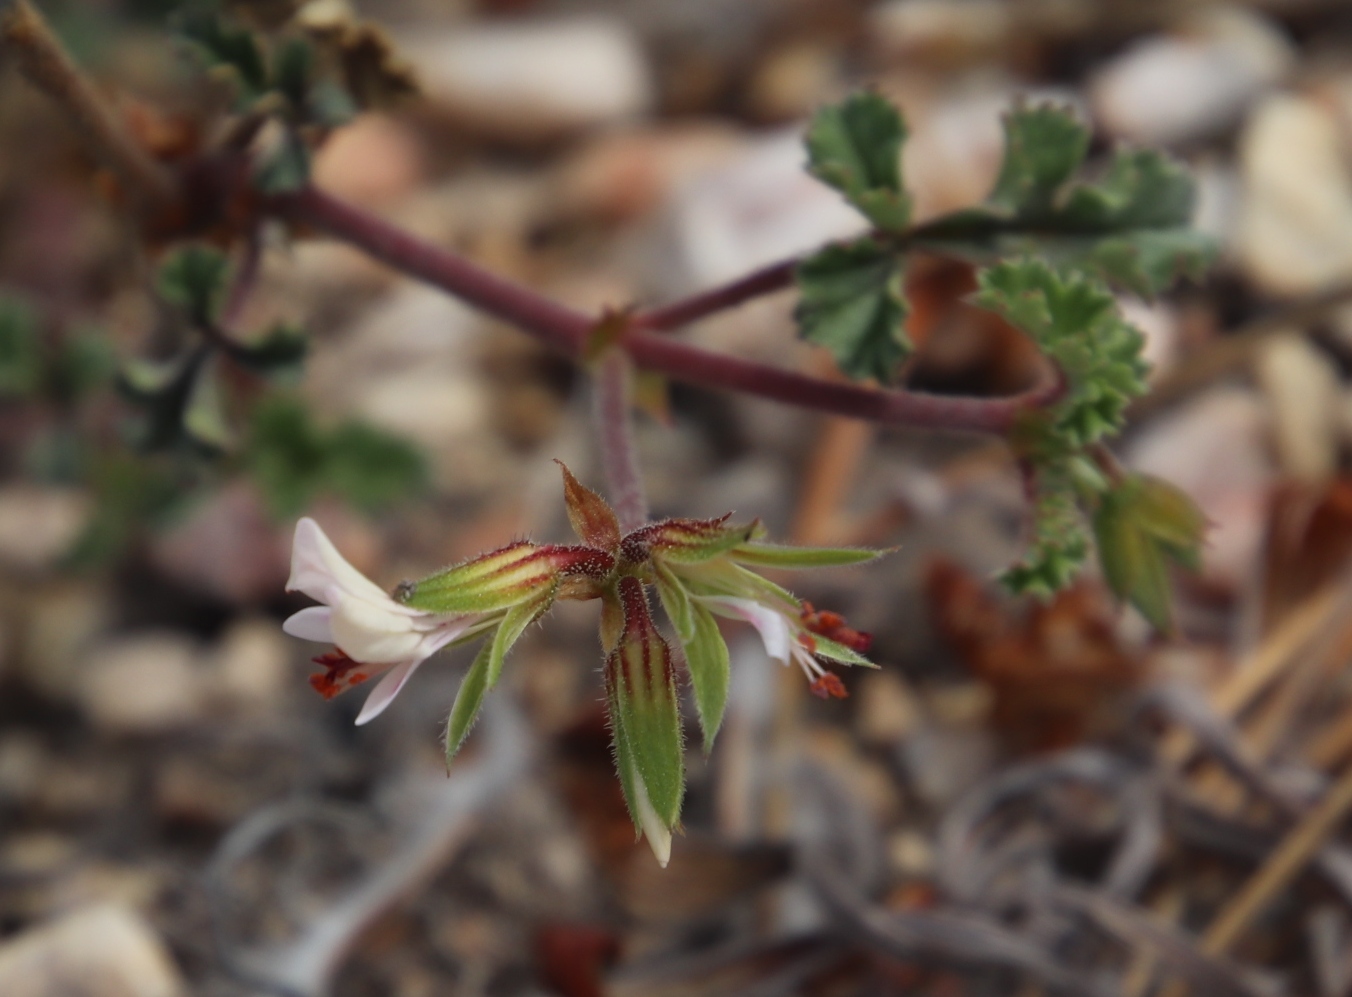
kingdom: Plantae
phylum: Tracheophyta
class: Magnoliopsida
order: Geraniales
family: Geraniaceae
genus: Pelargonium
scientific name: Pelargonium candicans
